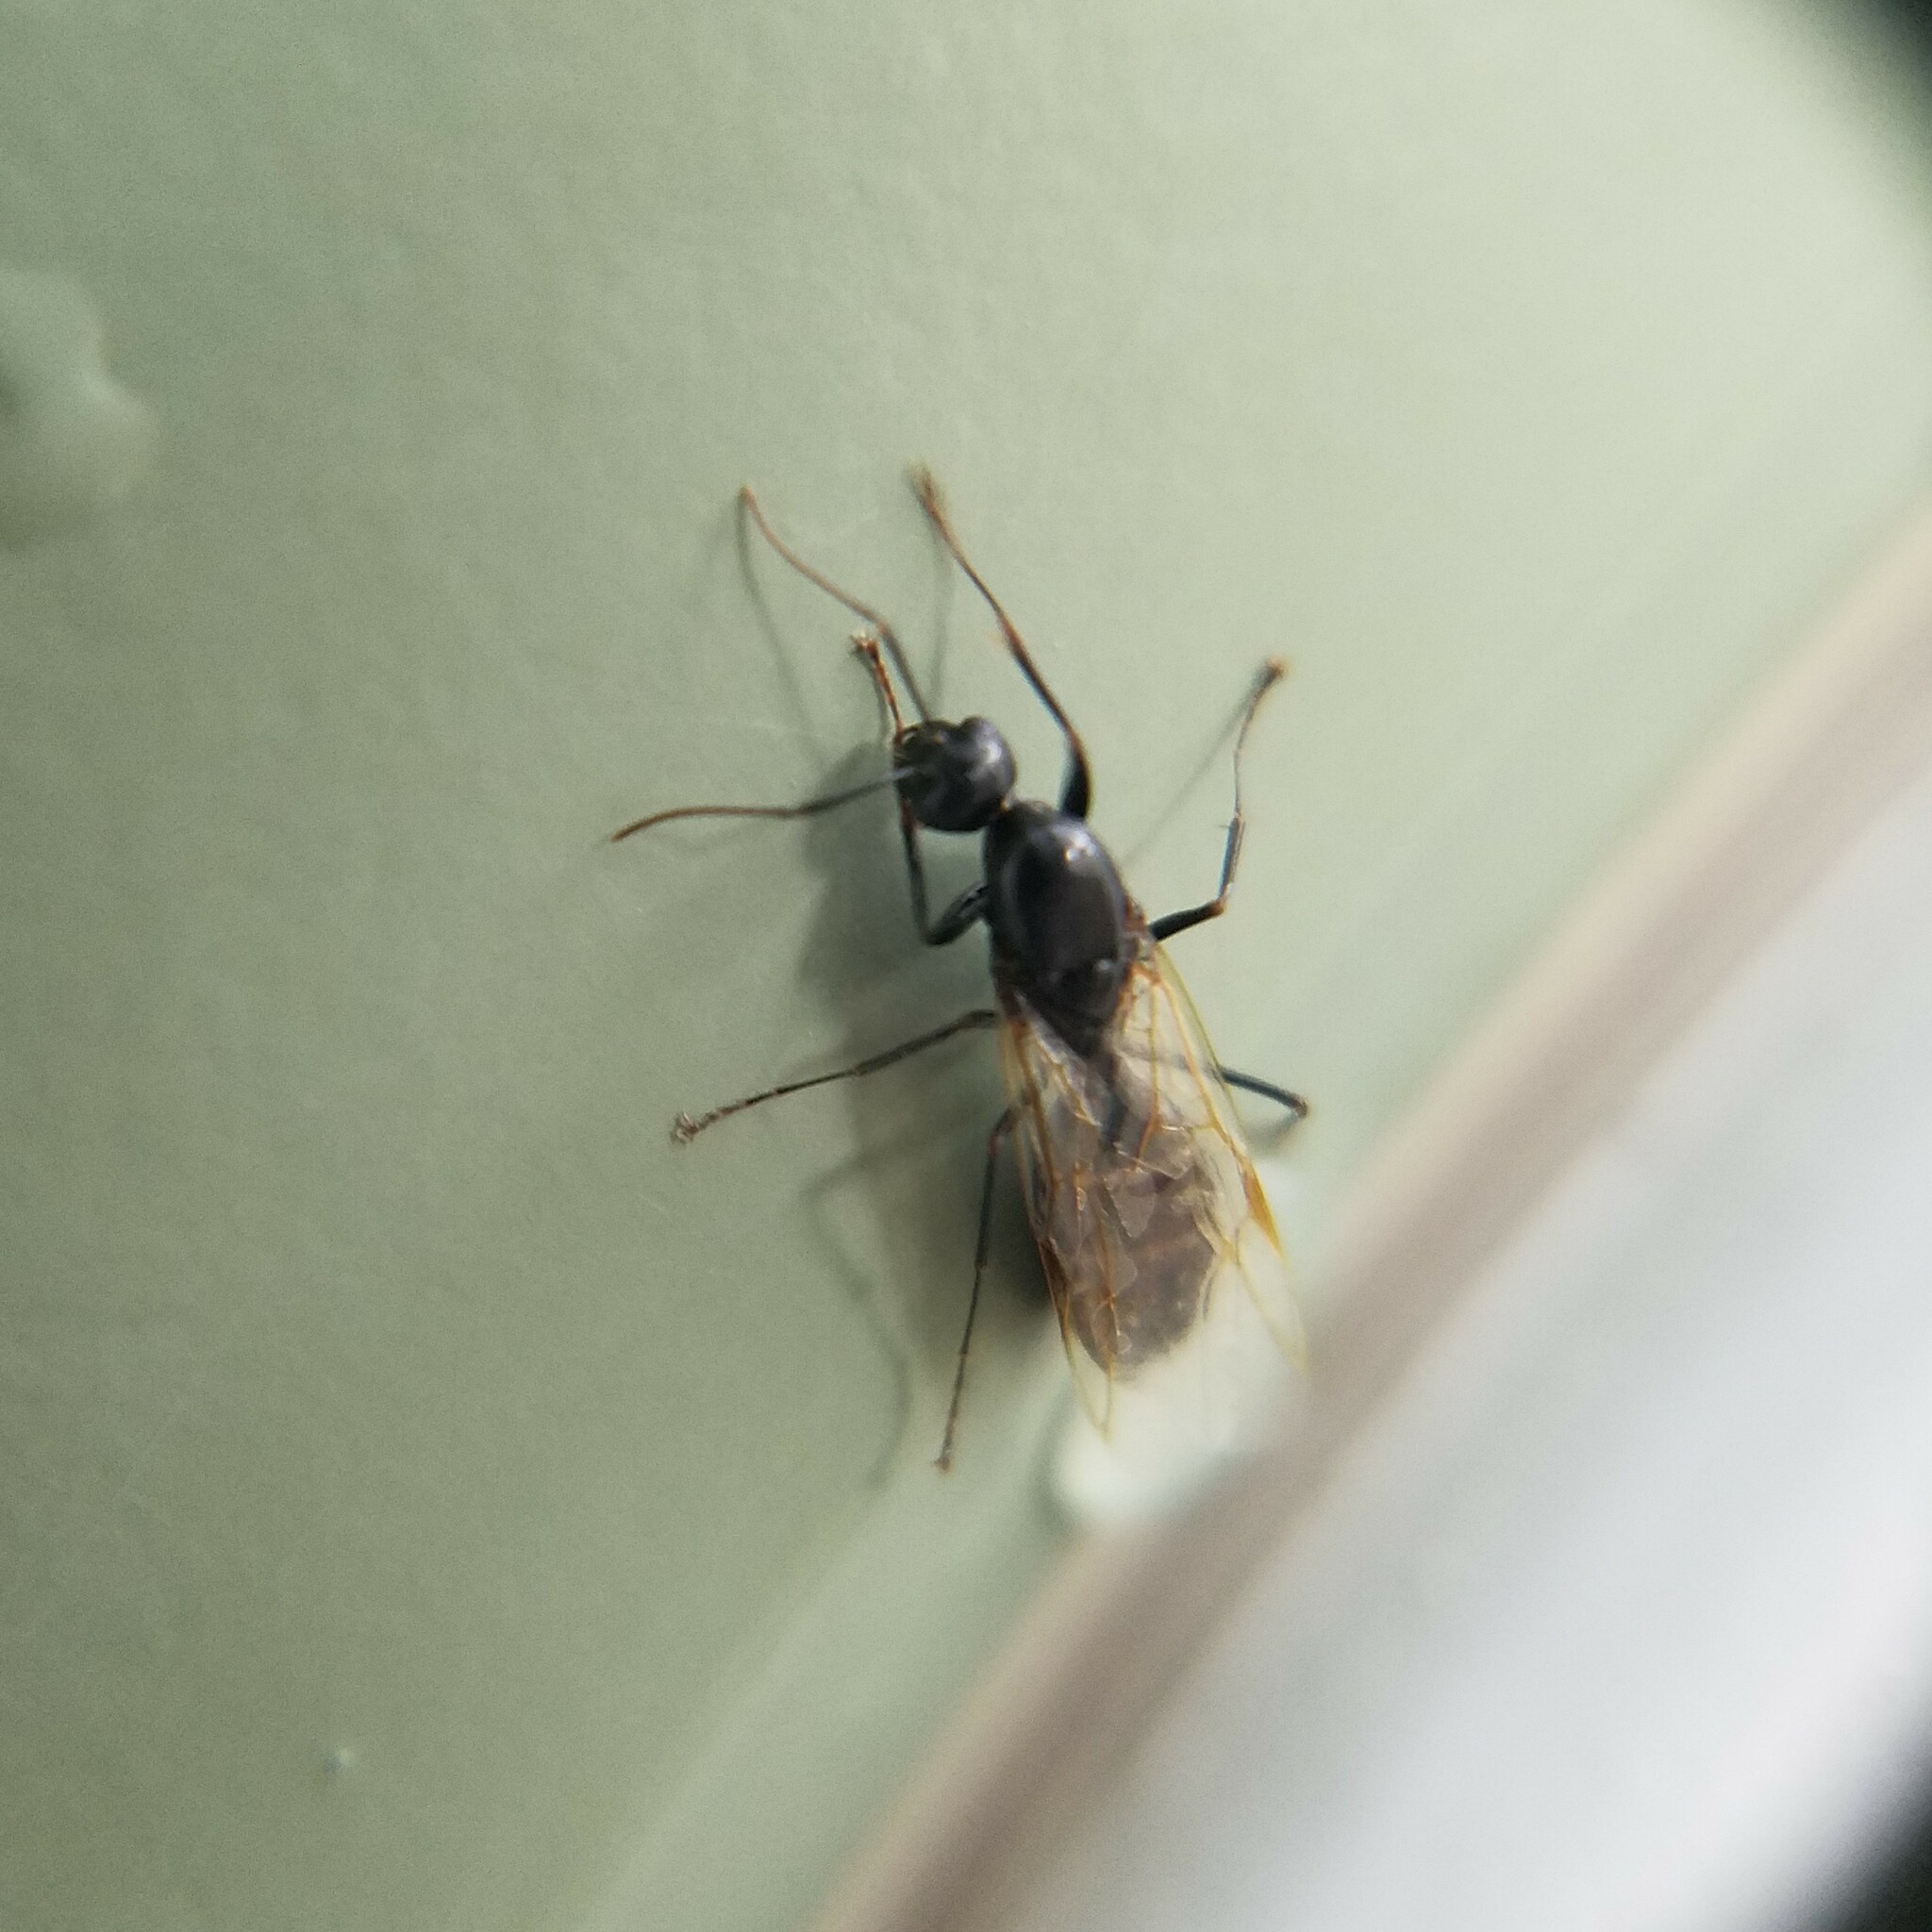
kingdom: Animalia
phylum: Arthropoda
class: Insecta
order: Hymenoptera
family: Formicidae
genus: Camponotus
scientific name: Camponotus nearcticus
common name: Smaller carpenter ant
